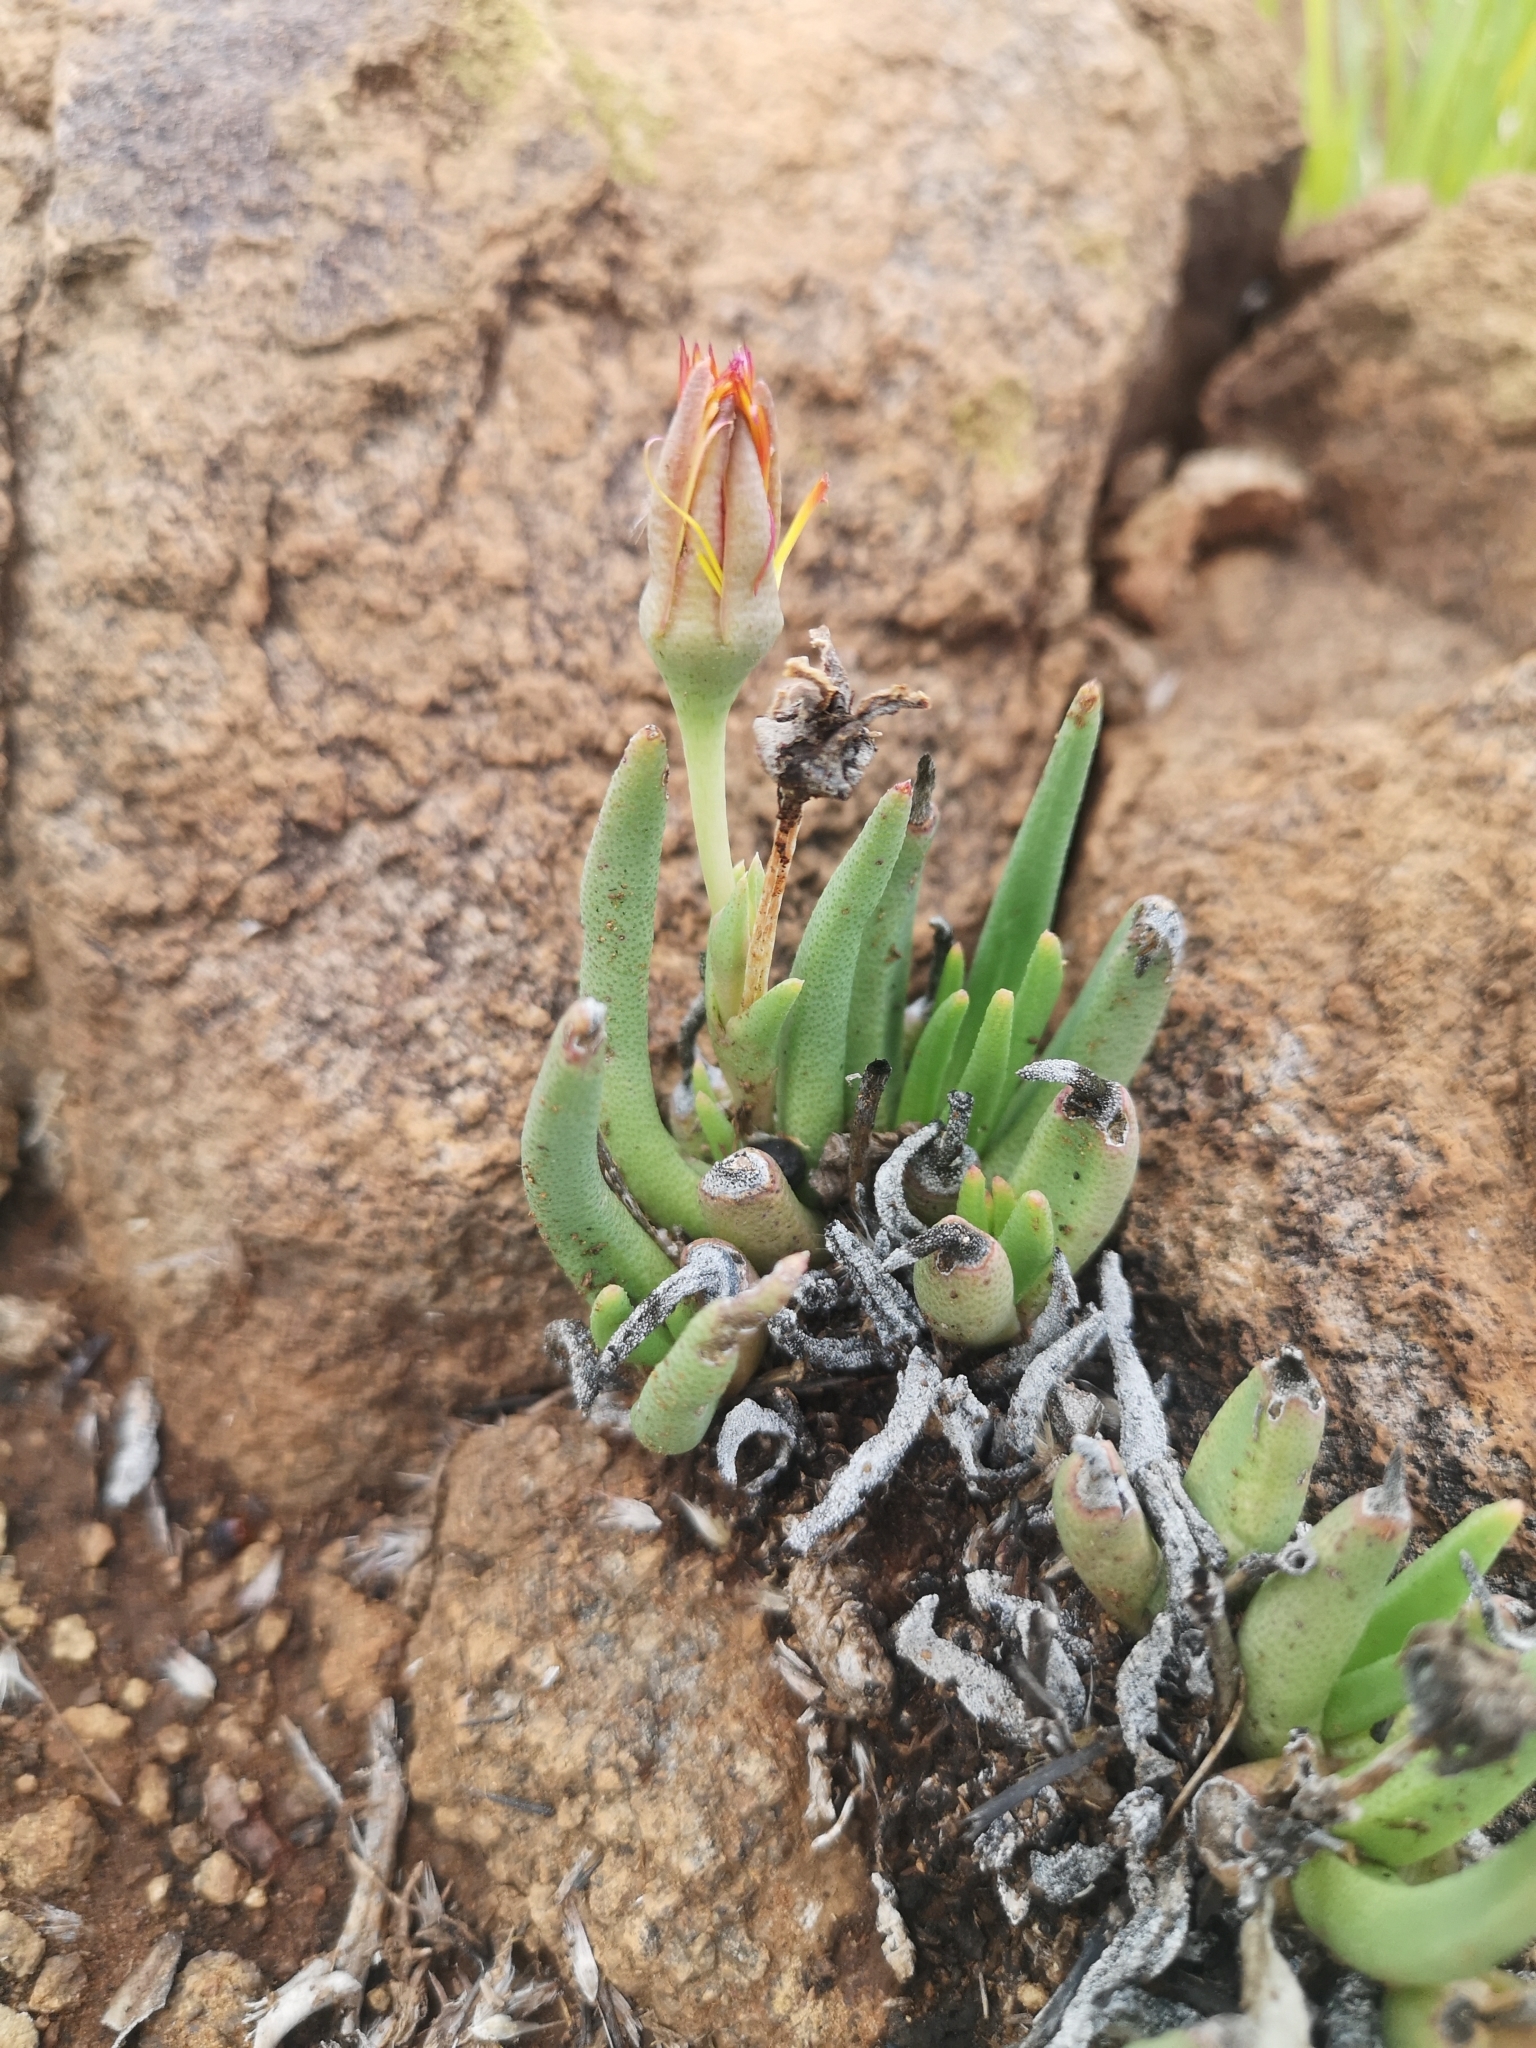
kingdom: Plantae
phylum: Tracheophyta
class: Magnoliopsida
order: Caryophyllales
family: Aizoaceae
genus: Dracophilus
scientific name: Dracophilus Hereroa glenensis
